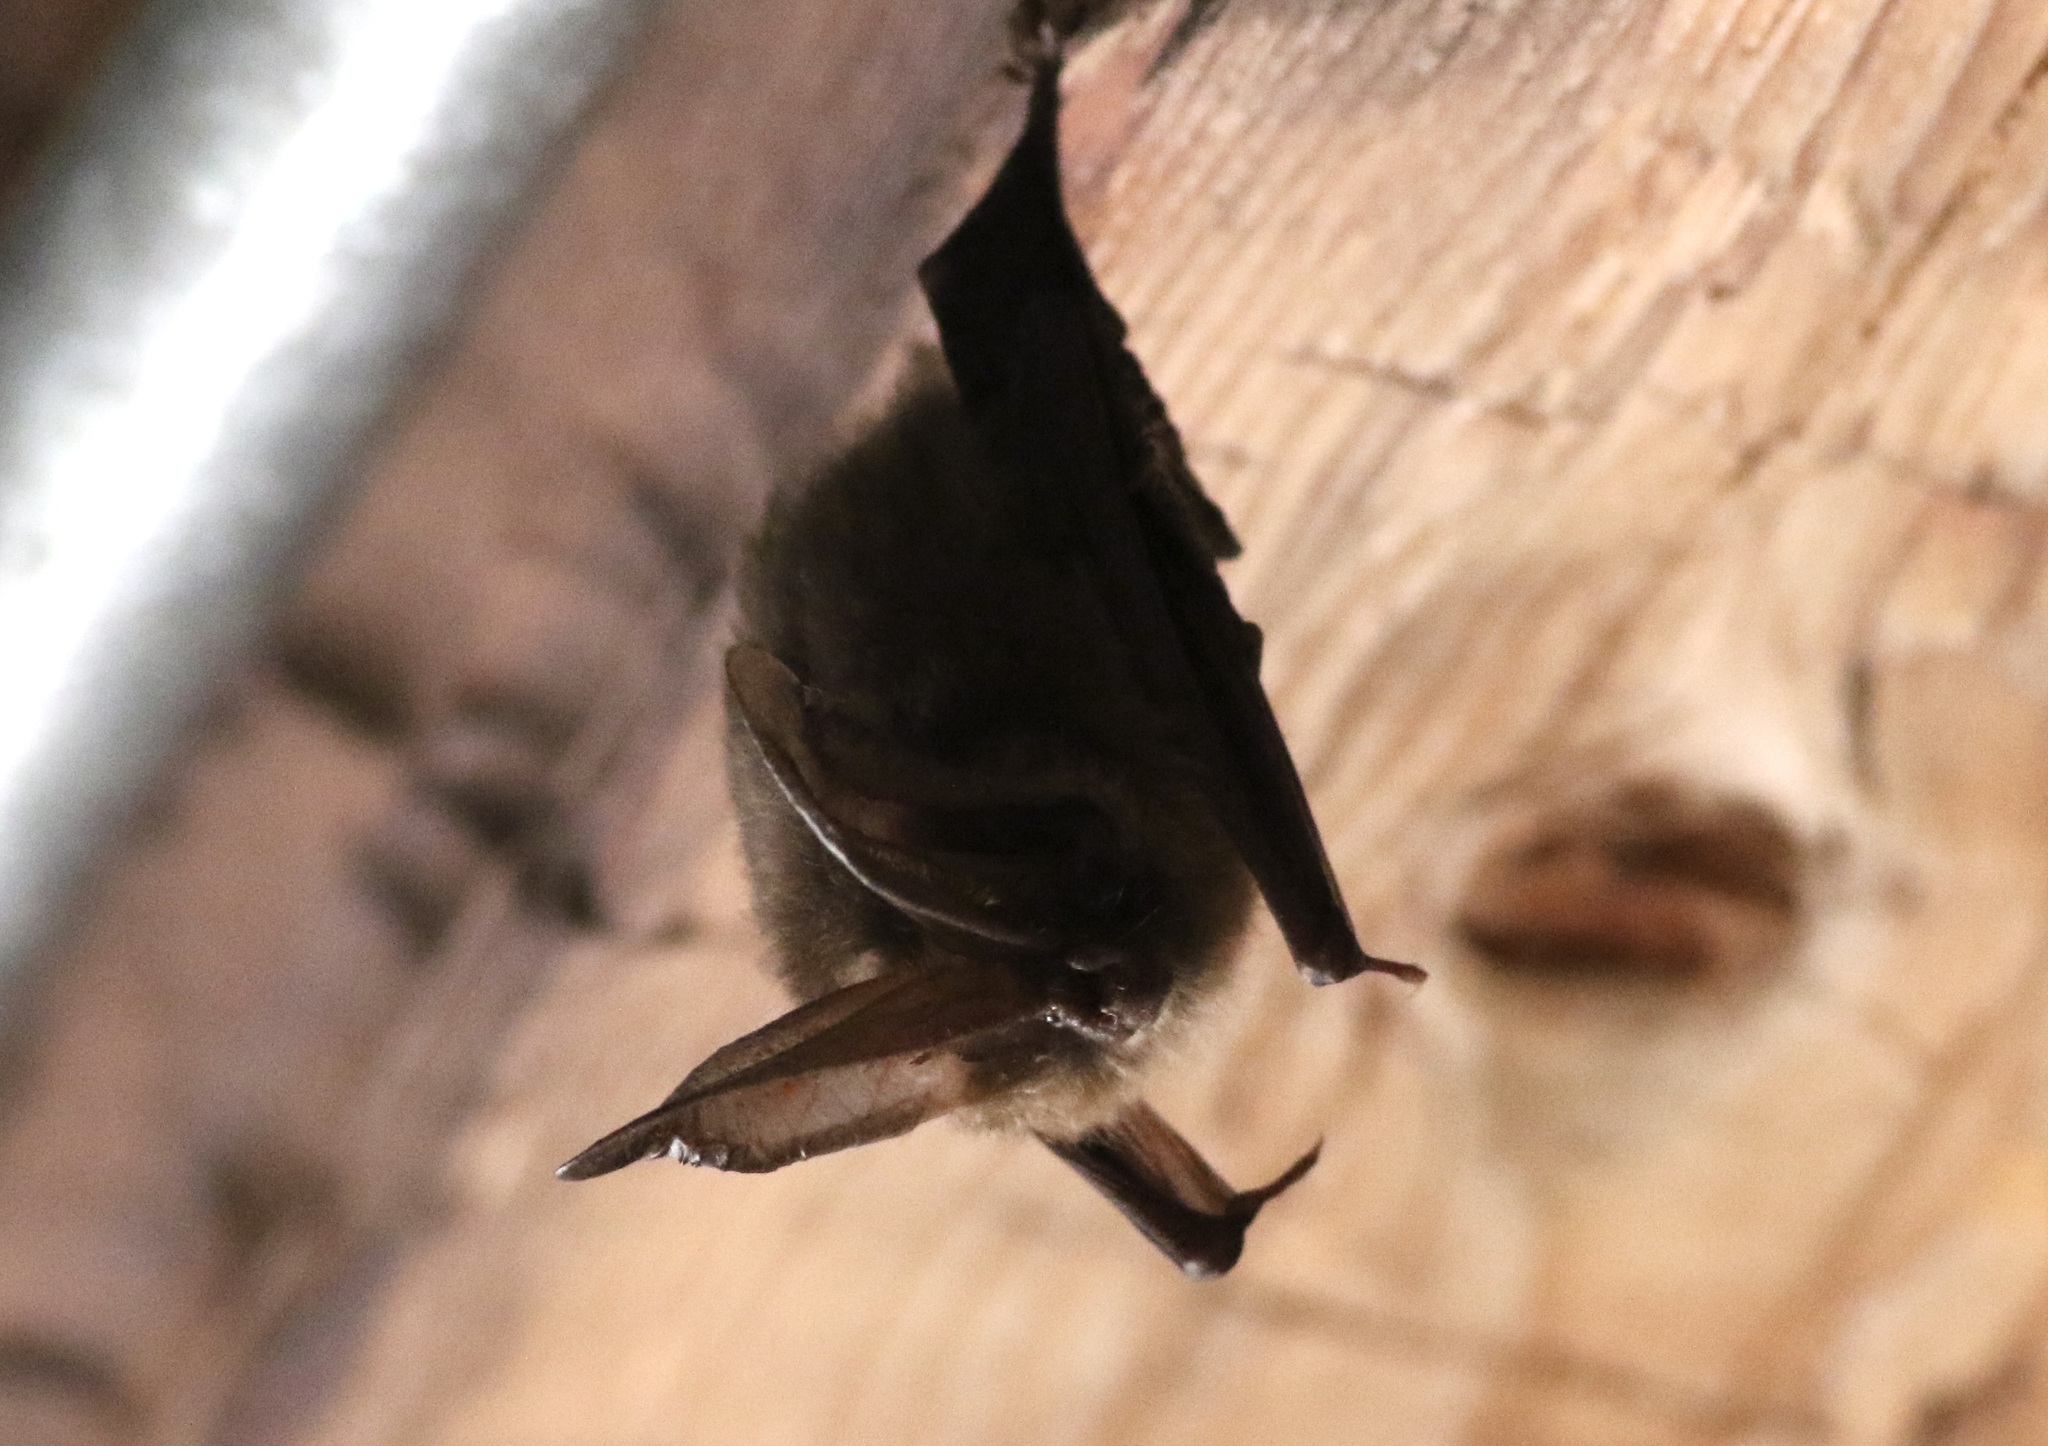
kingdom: Animalia
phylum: Chordata
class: Mammalia
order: Chiroptera
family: Vespertilionidae
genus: Corynorhinus
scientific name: Corynorhinus townsendii
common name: Townsend's big-eared bat
